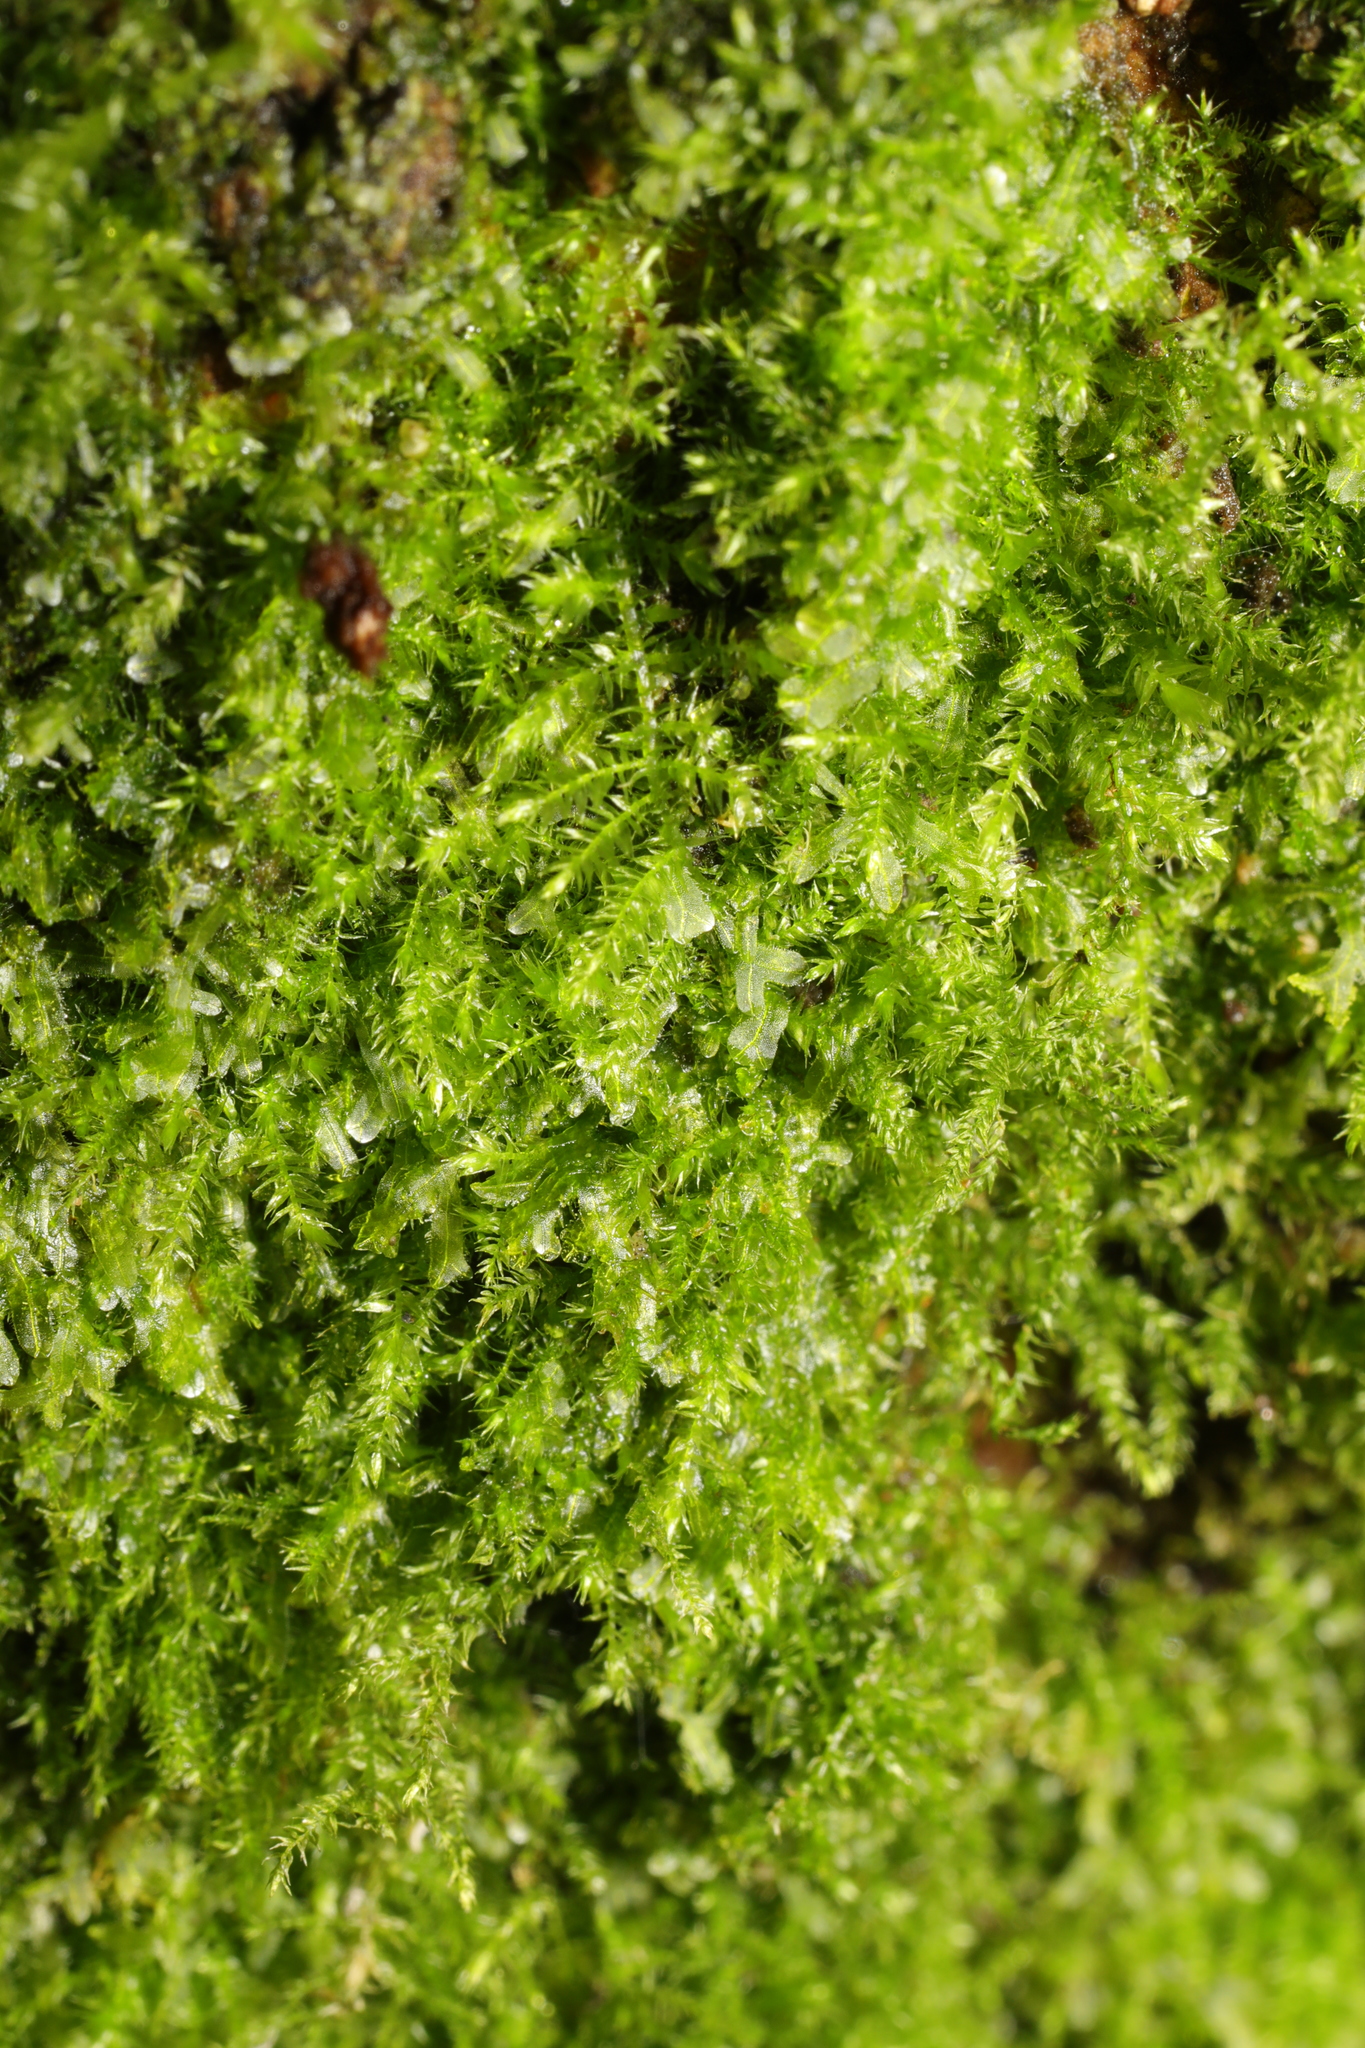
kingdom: Plantae
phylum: Marchantiophyta
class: Jungermanniopsida
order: Metzgeriales
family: Metzgeriaceae
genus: Metzgeria
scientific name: Metzgeria furcata
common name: Forked veilwort
